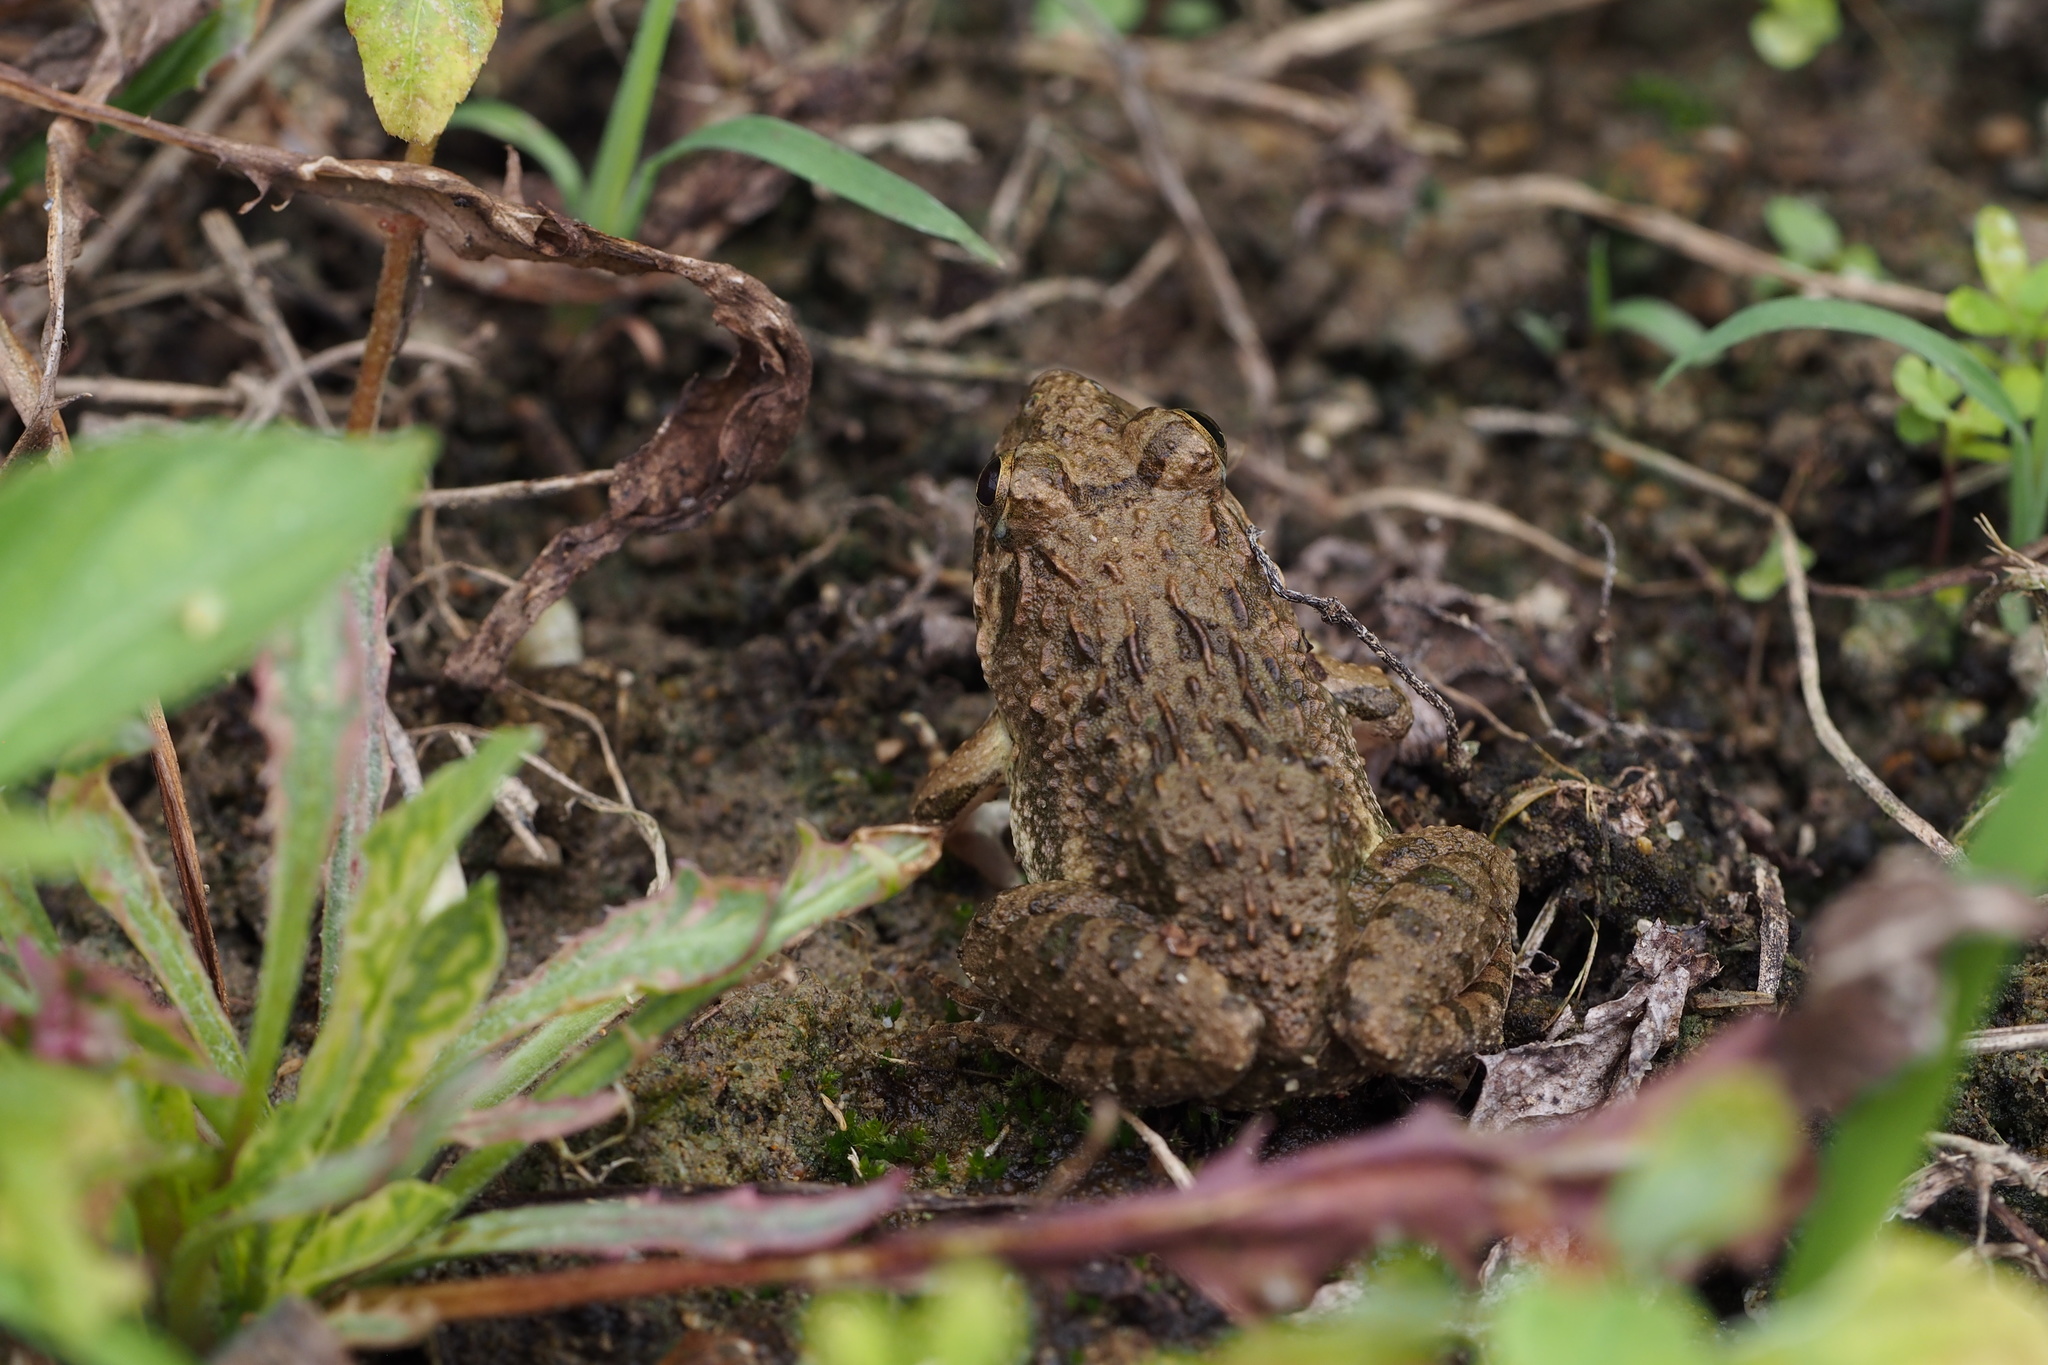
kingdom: Animalia
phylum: Chordata
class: Amphibia
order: Anura
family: Ranidae
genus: Glandirana
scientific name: Glandirana rugosa
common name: Japanese wrinkled frog
